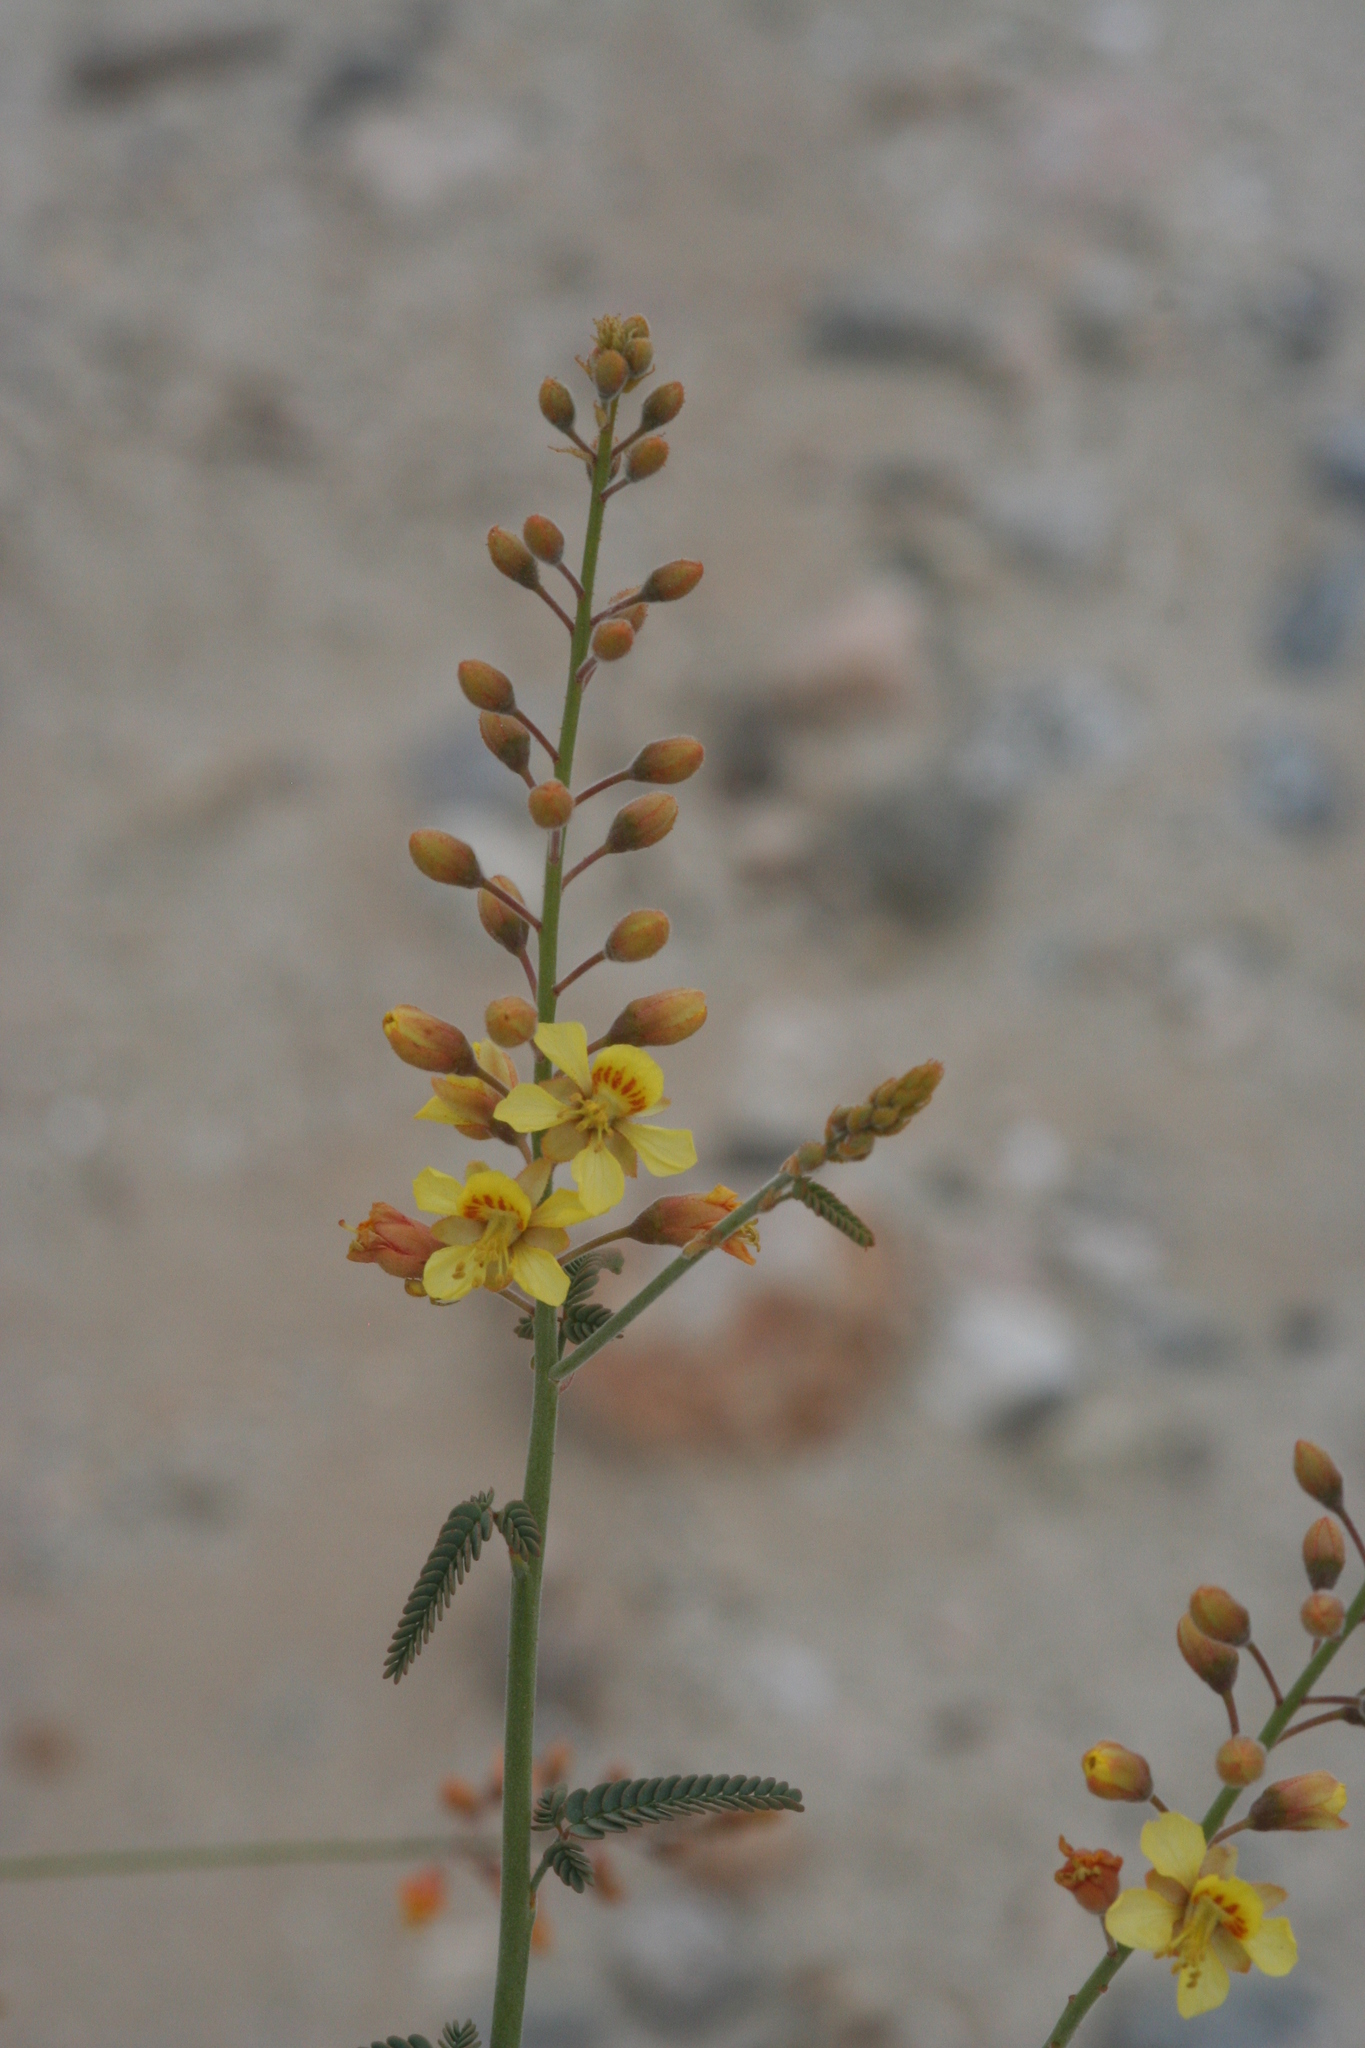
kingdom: Plantae
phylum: Tracheophyta
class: Magnoliopsida
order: Fabales
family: Fabaceae
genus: Hoffmannseggia
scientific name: Hoffmannseggia microphylla
